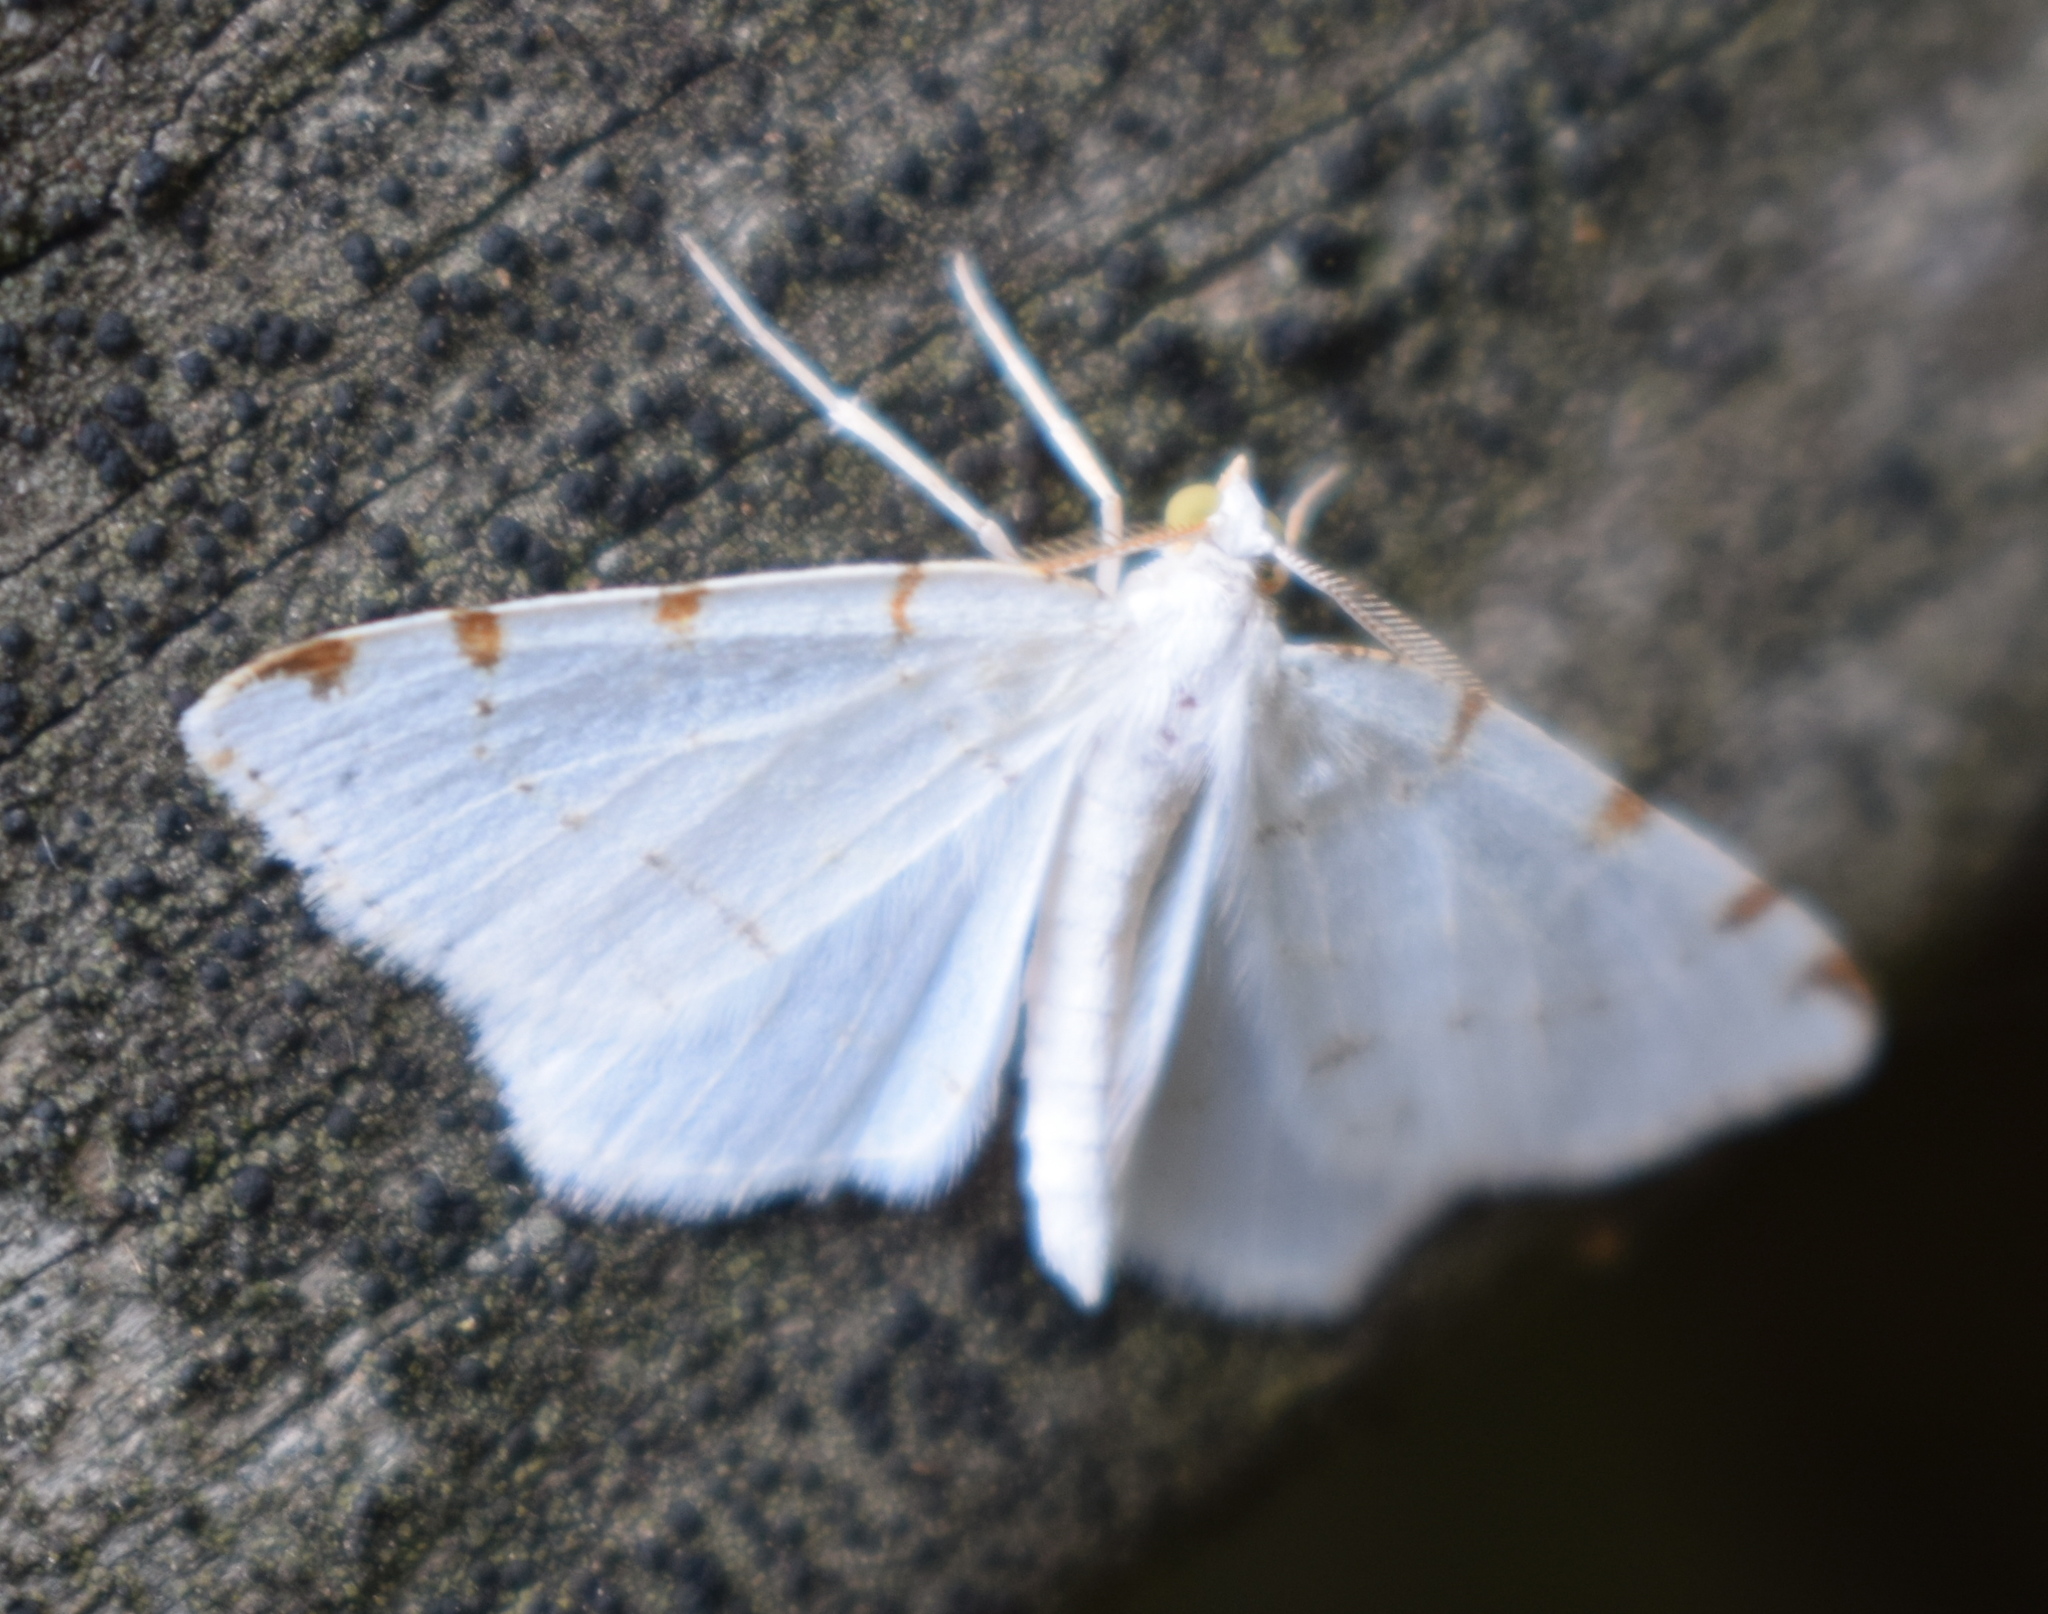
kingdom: Animalia
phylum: Arthropoda
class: Insecta
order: Lepidoptera
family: Geometridae
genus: Macaria
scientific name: Macaria pustularia
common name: Lesser maple spanworm moth
